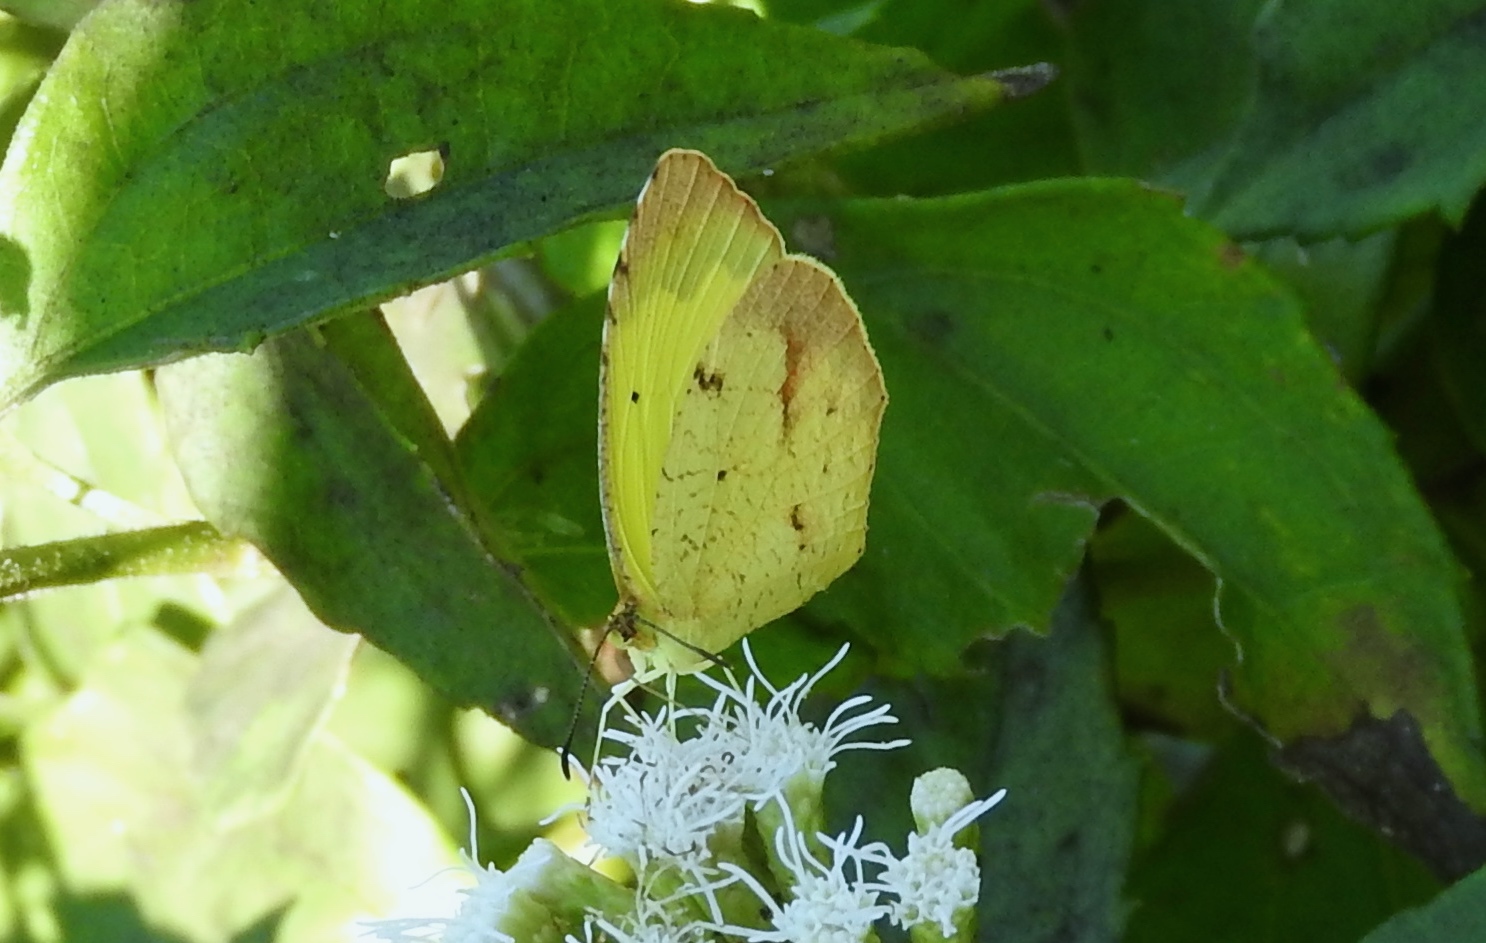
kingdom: Animalia
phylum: Arthropoda
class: Insecta
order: Lepidoptera
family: Pieridae
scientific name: Pieridae
